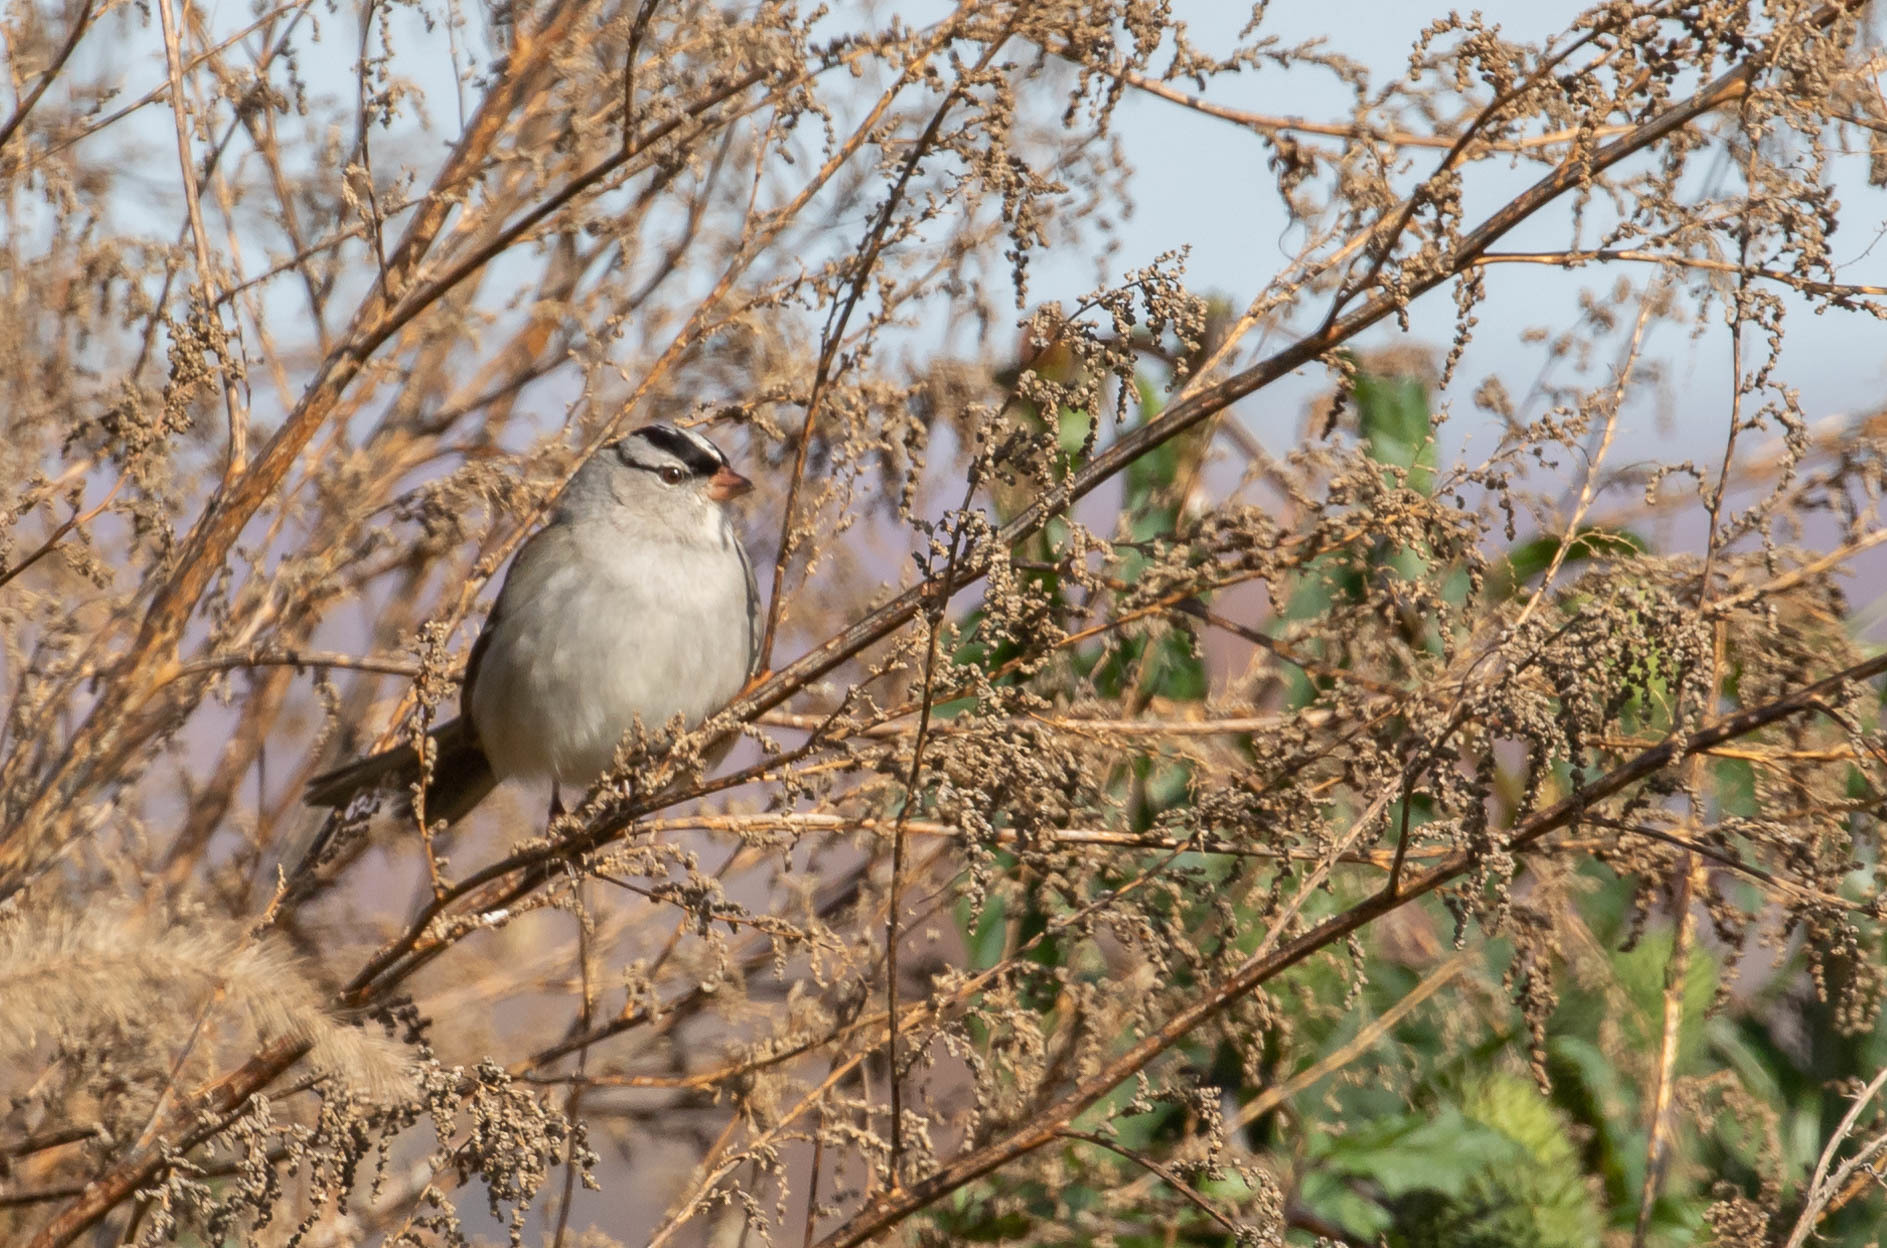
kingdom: Animalia
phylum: Chordata
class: Aves
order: Passeriformes
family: Passerellidae
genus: Zonotrichia
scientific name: Zonotrichia leucophrys
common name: White-crowned sparrow
